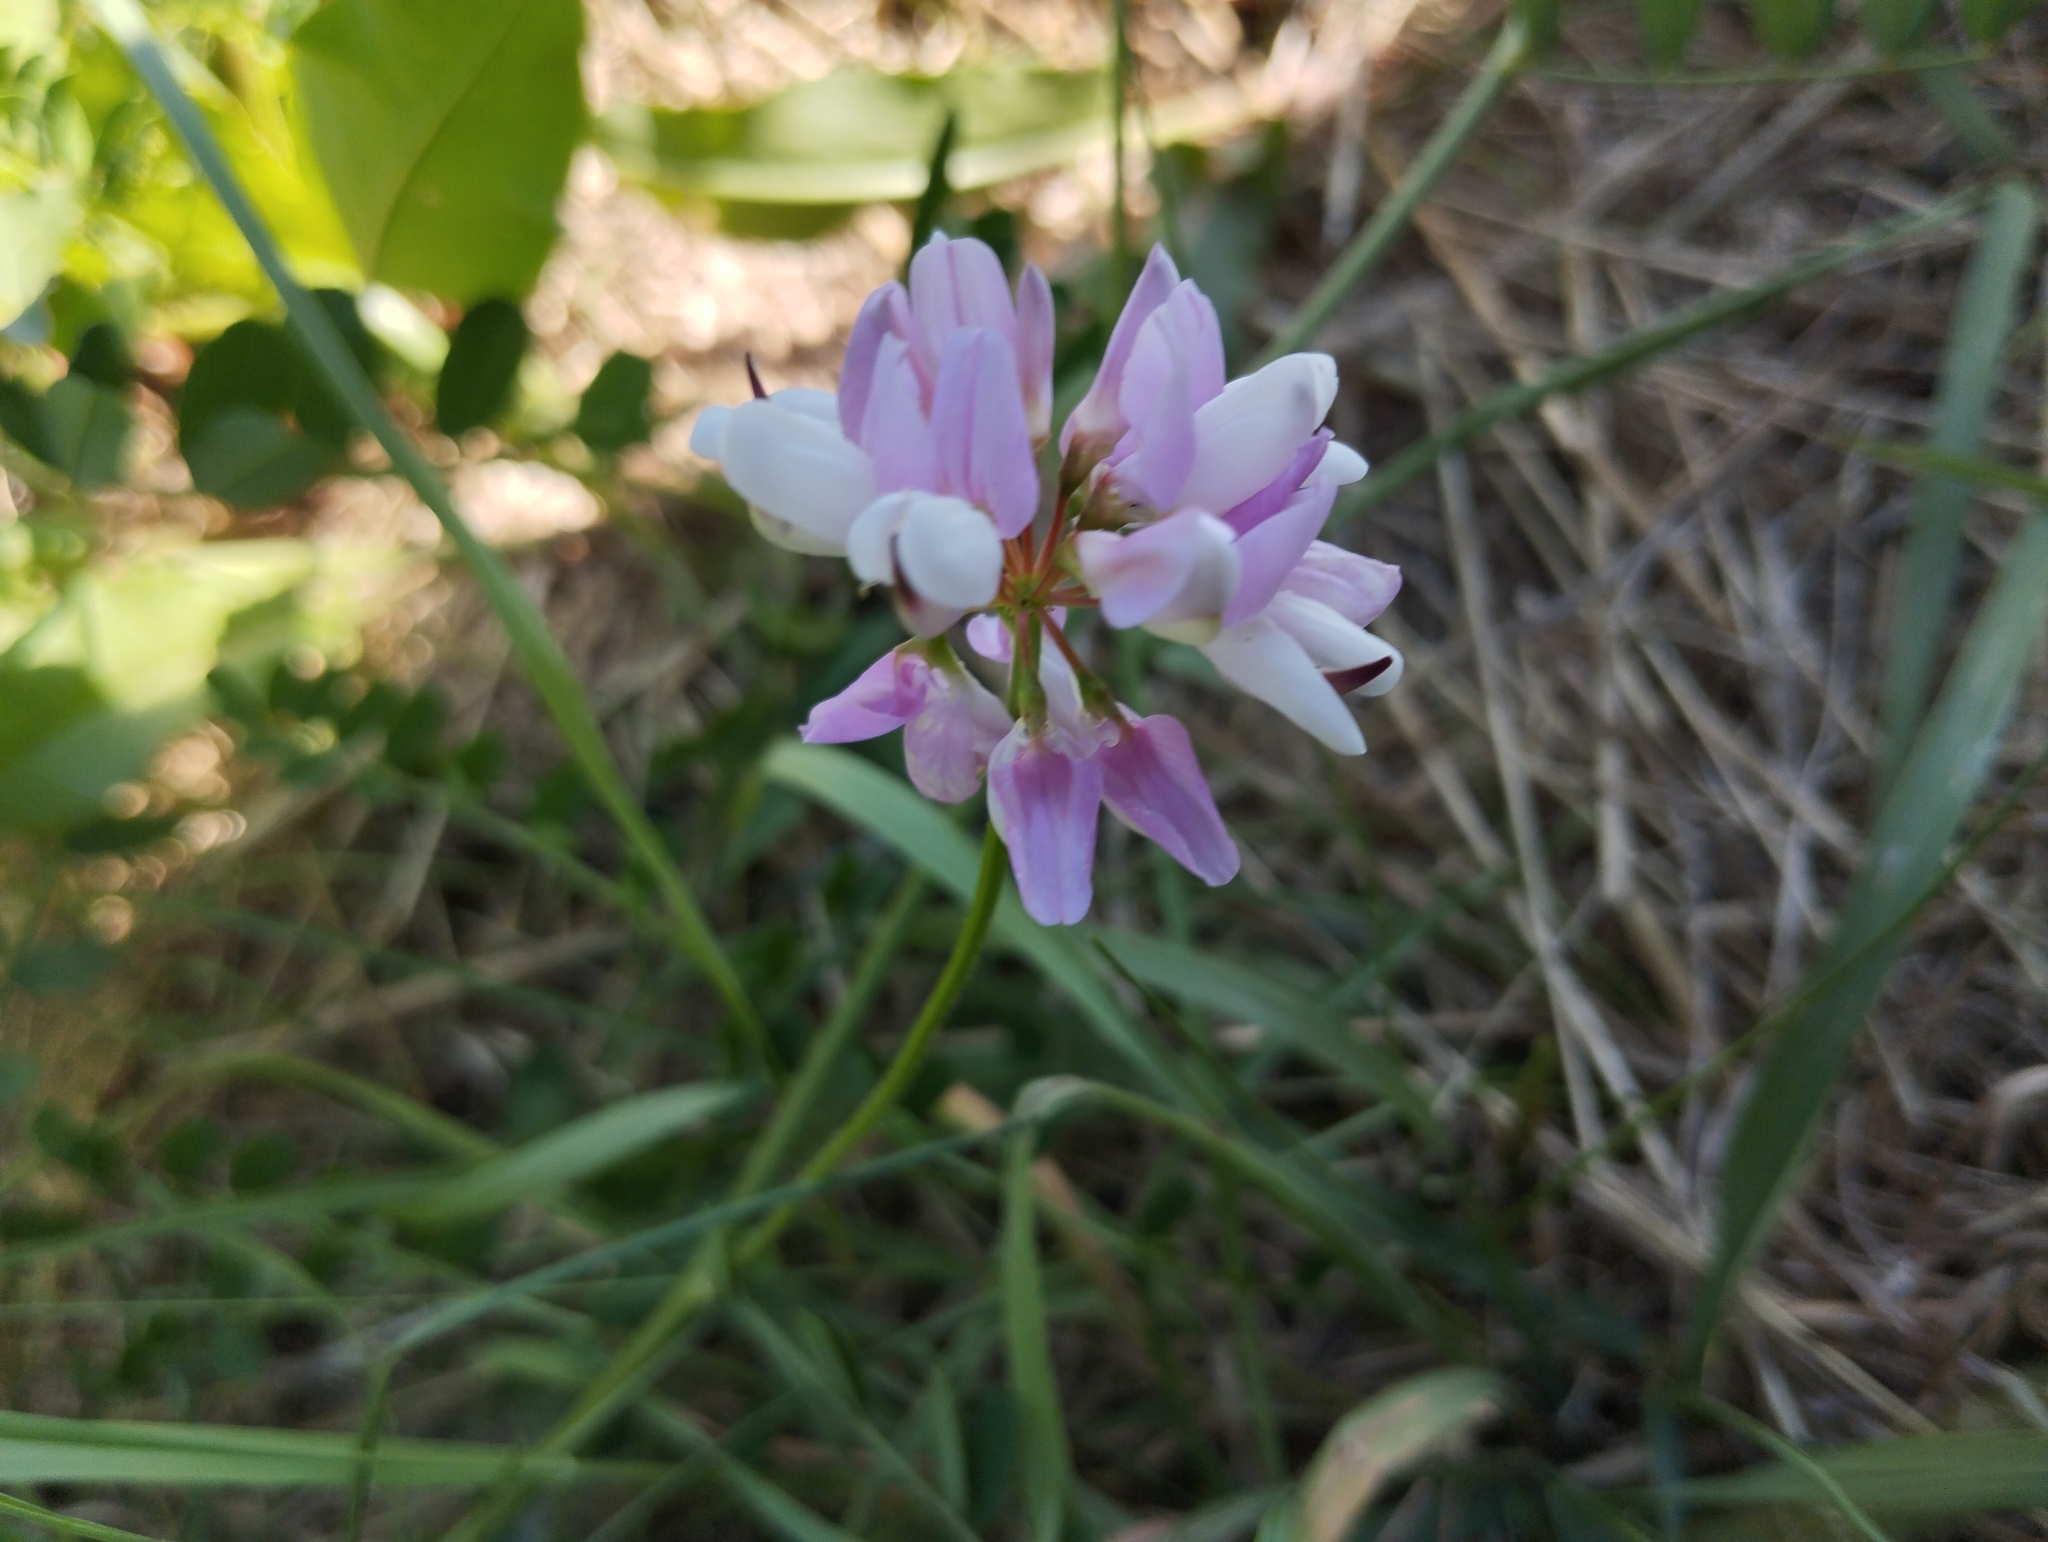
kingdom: Plantae
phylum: Tracheophyta
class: Magnoliopsida
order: Fabales
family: Fabaceae
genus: Coronilla
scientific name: Coronilla varia
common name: Crownvetch
